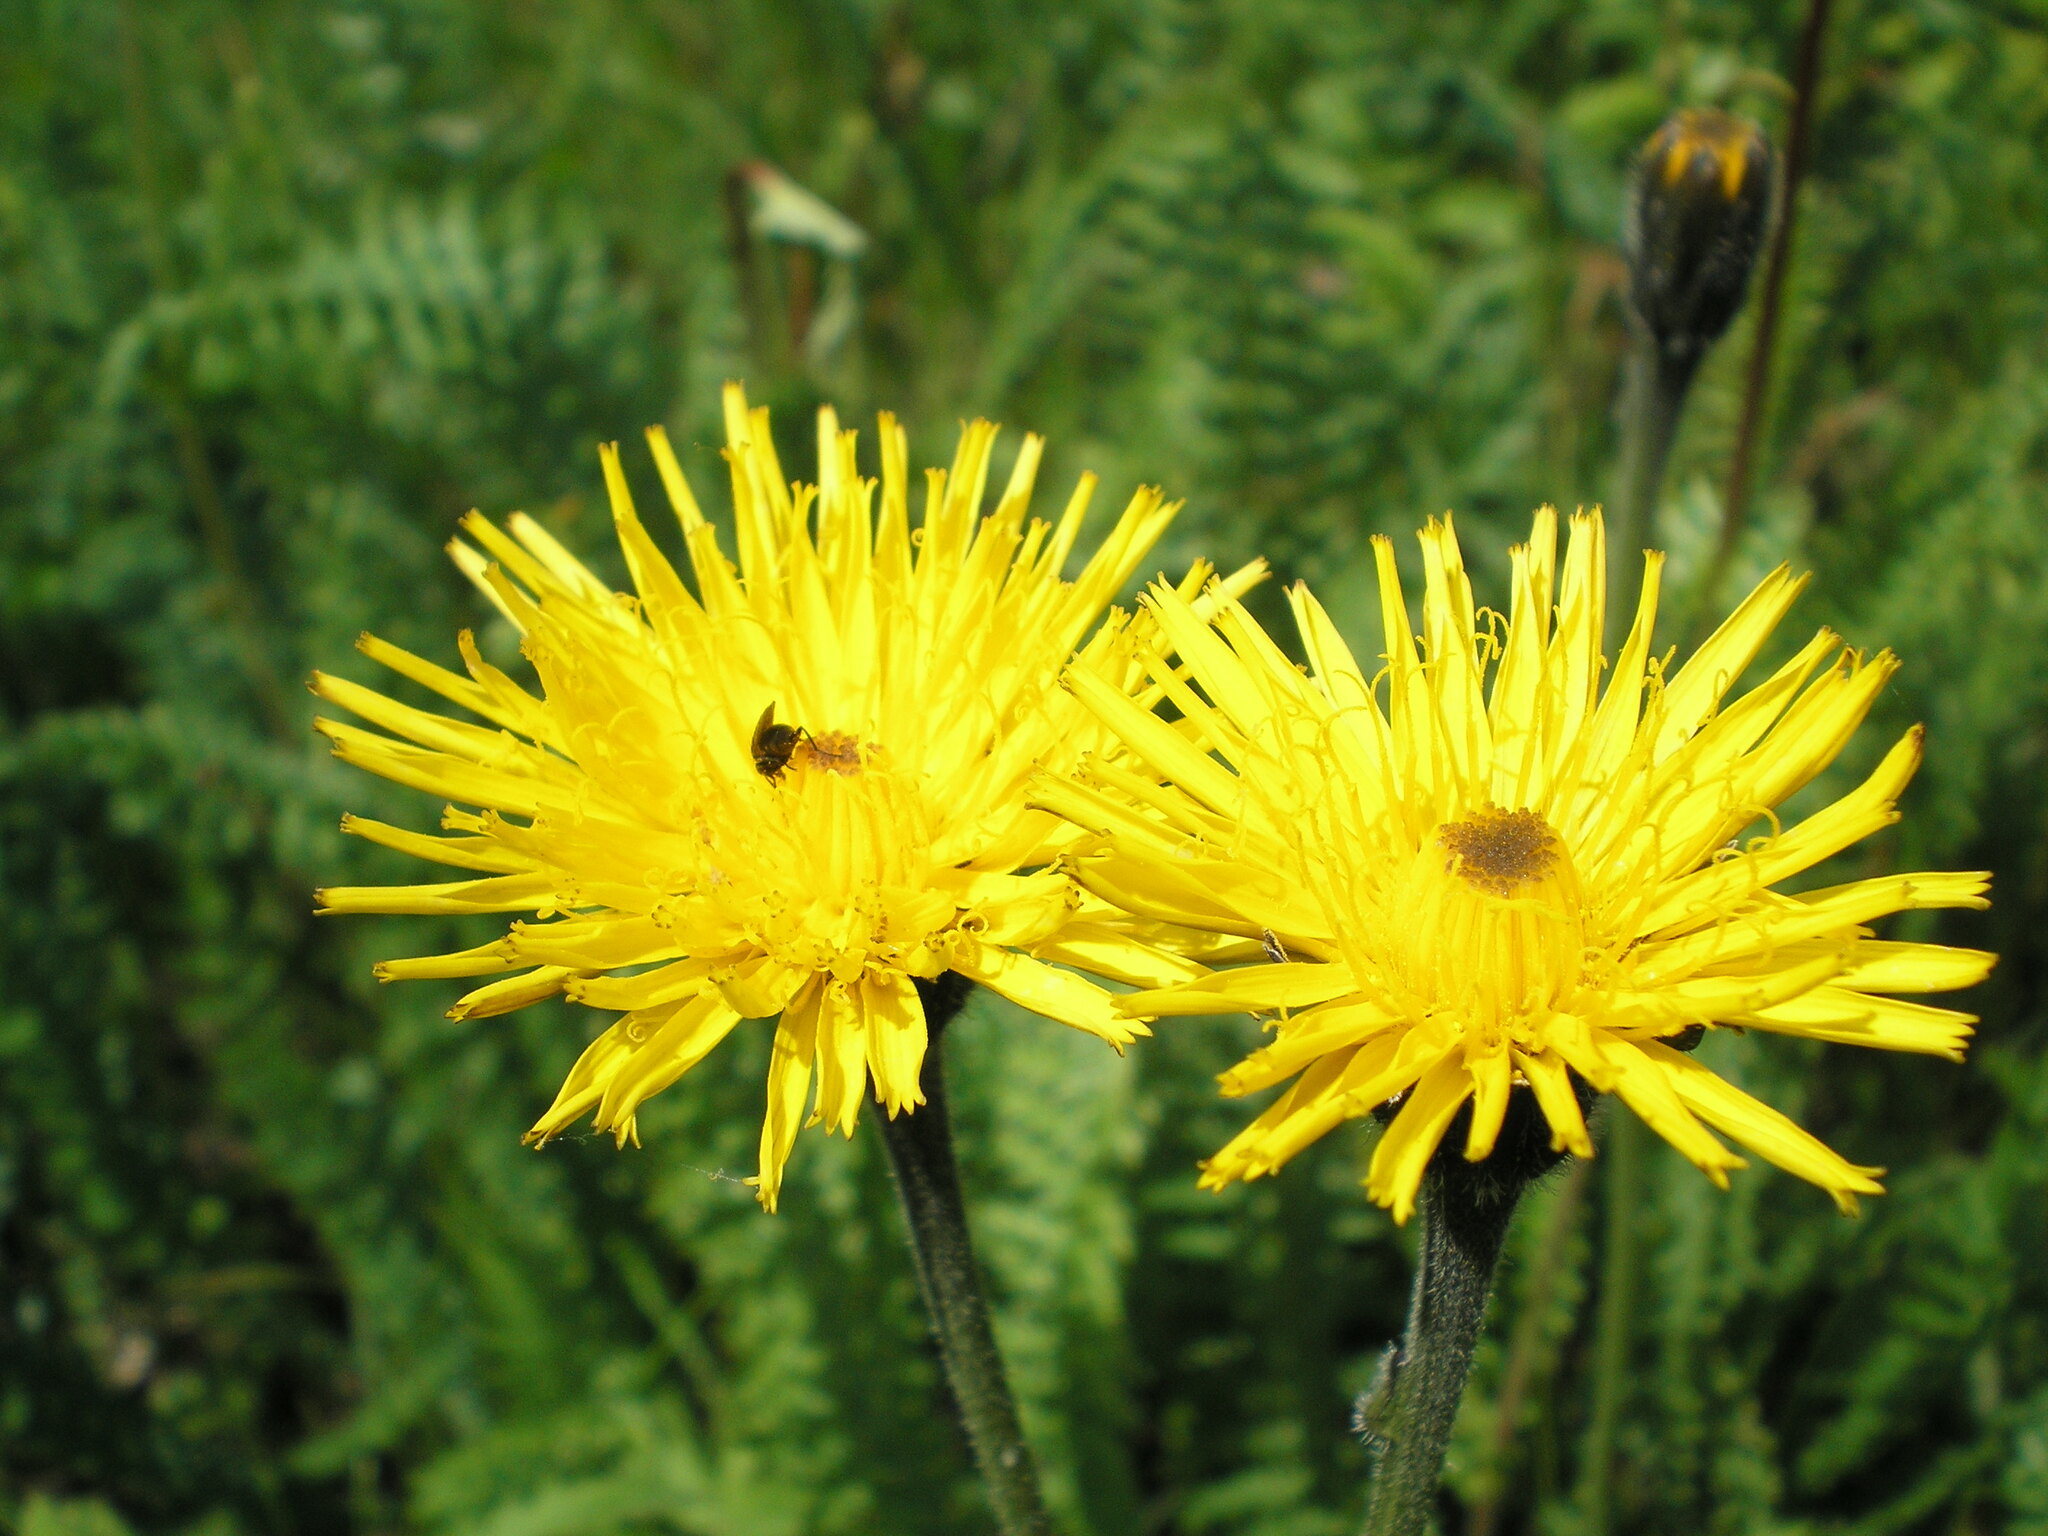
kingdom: Plantae
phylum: Tracheophyta
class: Magnoliopsida
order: Asterales
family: Asteraceae
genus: Leontodon
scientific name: Leontodon hispidus
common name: Rough hawkbit
